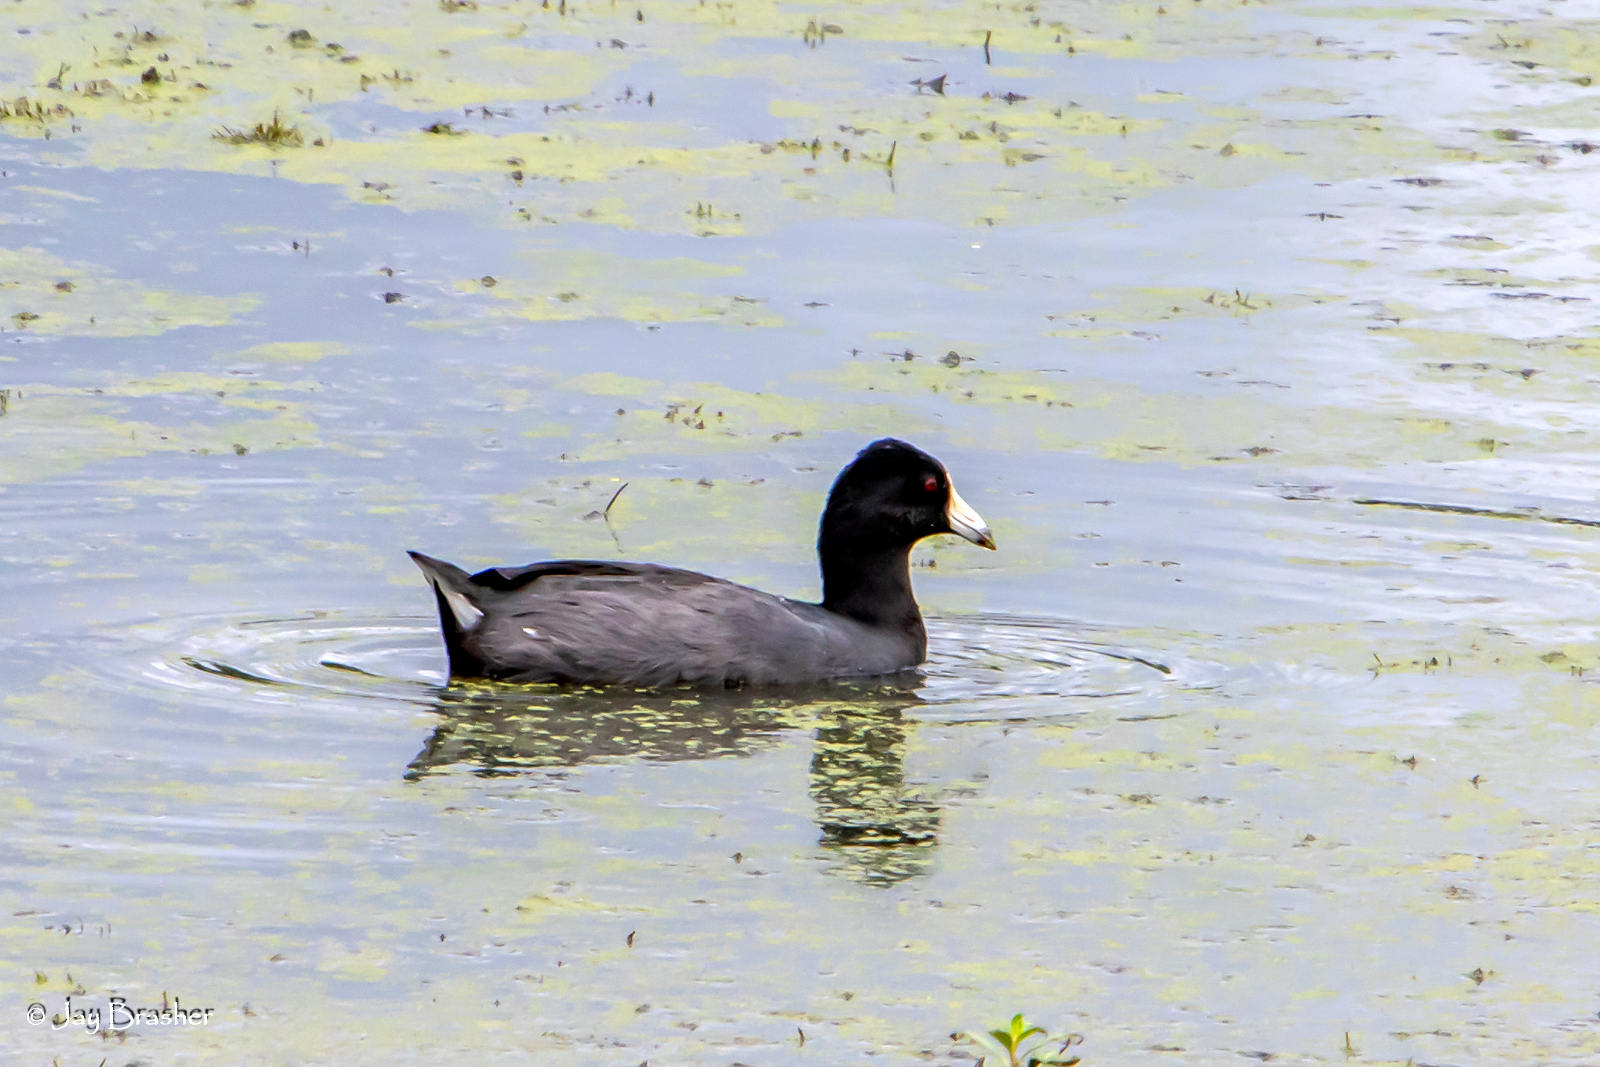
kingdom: Animalia
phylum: Chordata
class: Aves
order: Gruiformes
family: Rallidae
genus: Fulica
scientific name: Fulica americana
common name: American coot
